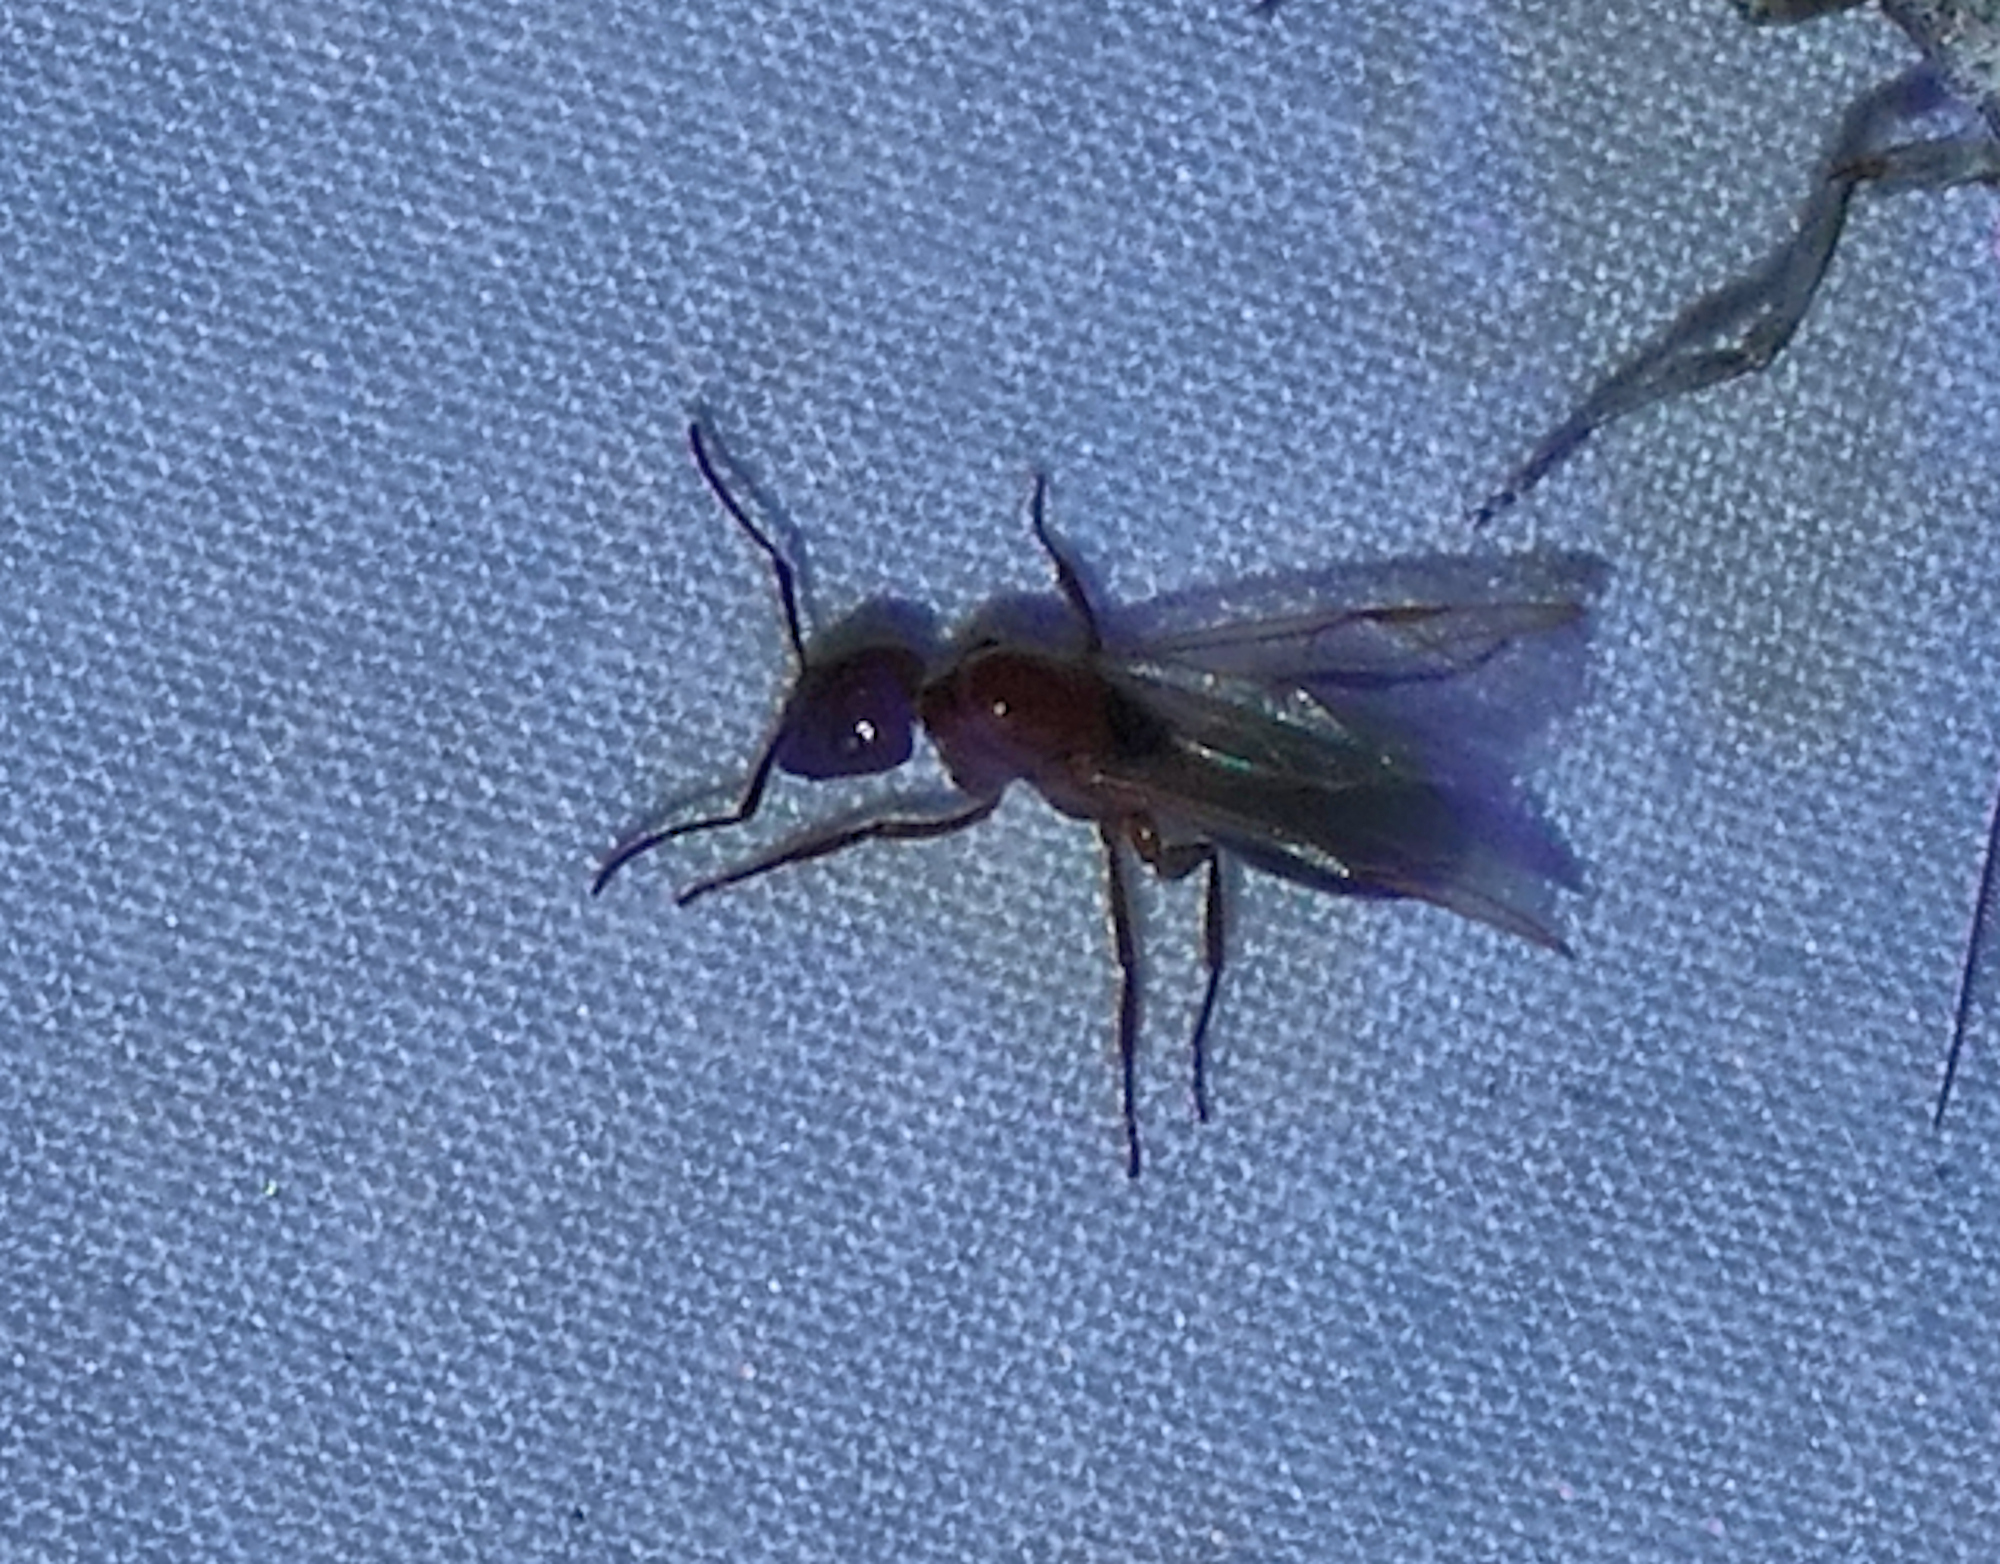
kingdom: Animalia
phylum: Arthropoda
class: Insecta
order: Hymenoptera
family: Formicidae
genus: Camponotus
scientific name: Camponotus sayi
